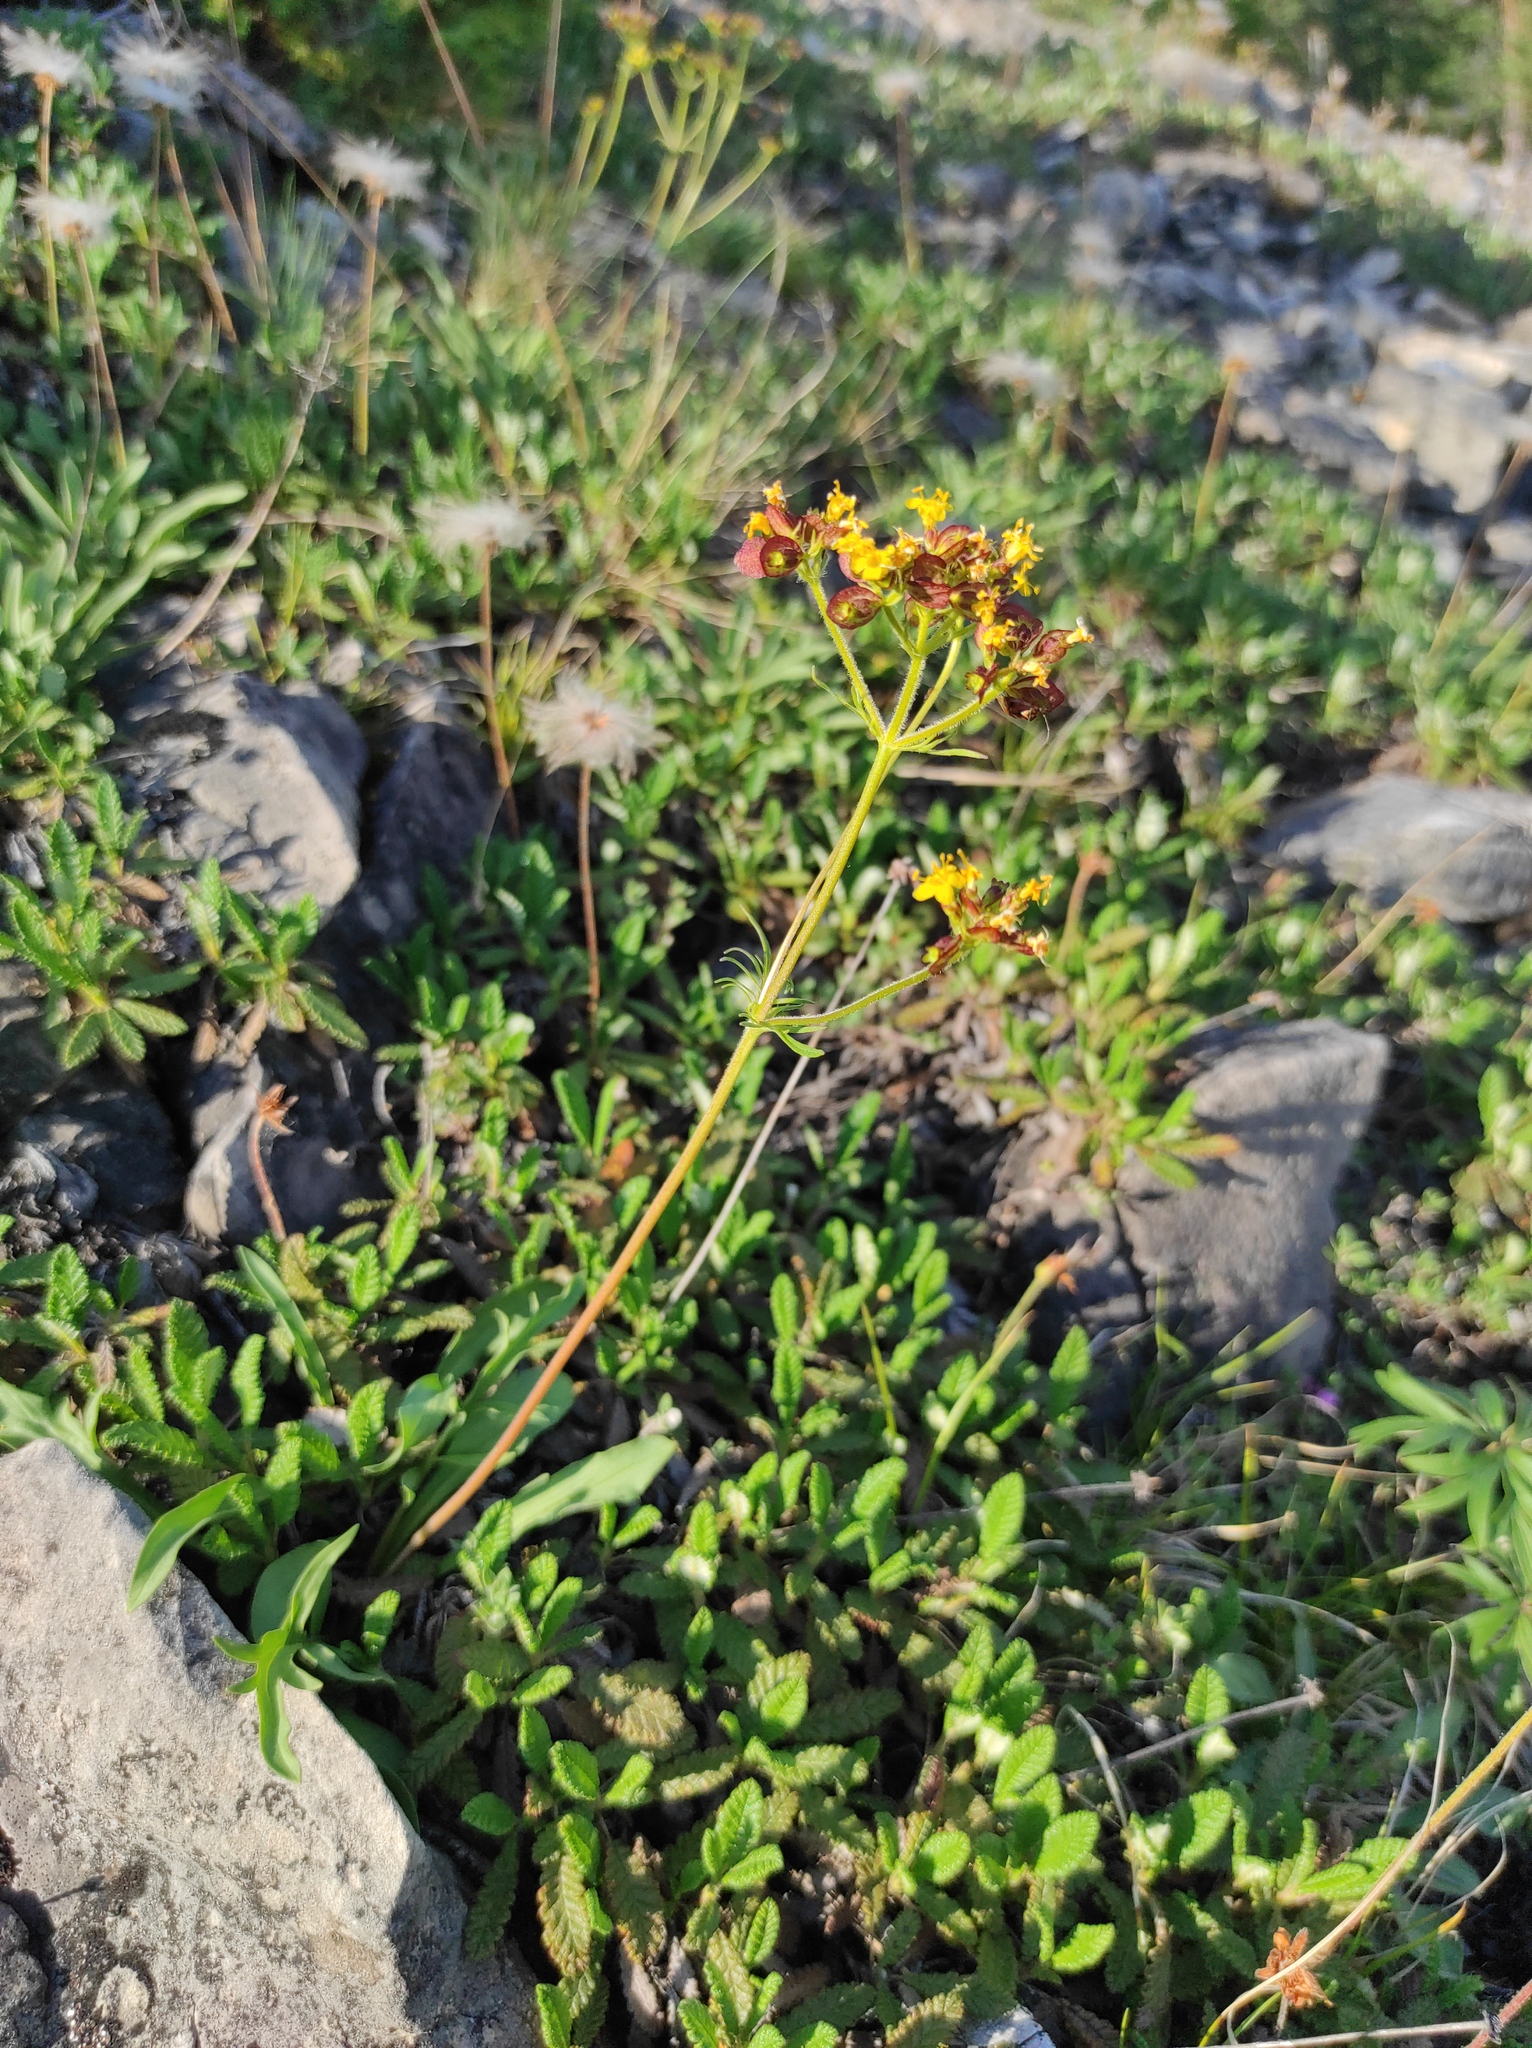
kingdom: Plantae
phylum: Tracheophyta
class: Magnoliopsida
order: Dipsacales
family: Caprifoliaceae
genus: Patrinia
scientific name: Patrinia sibirica
